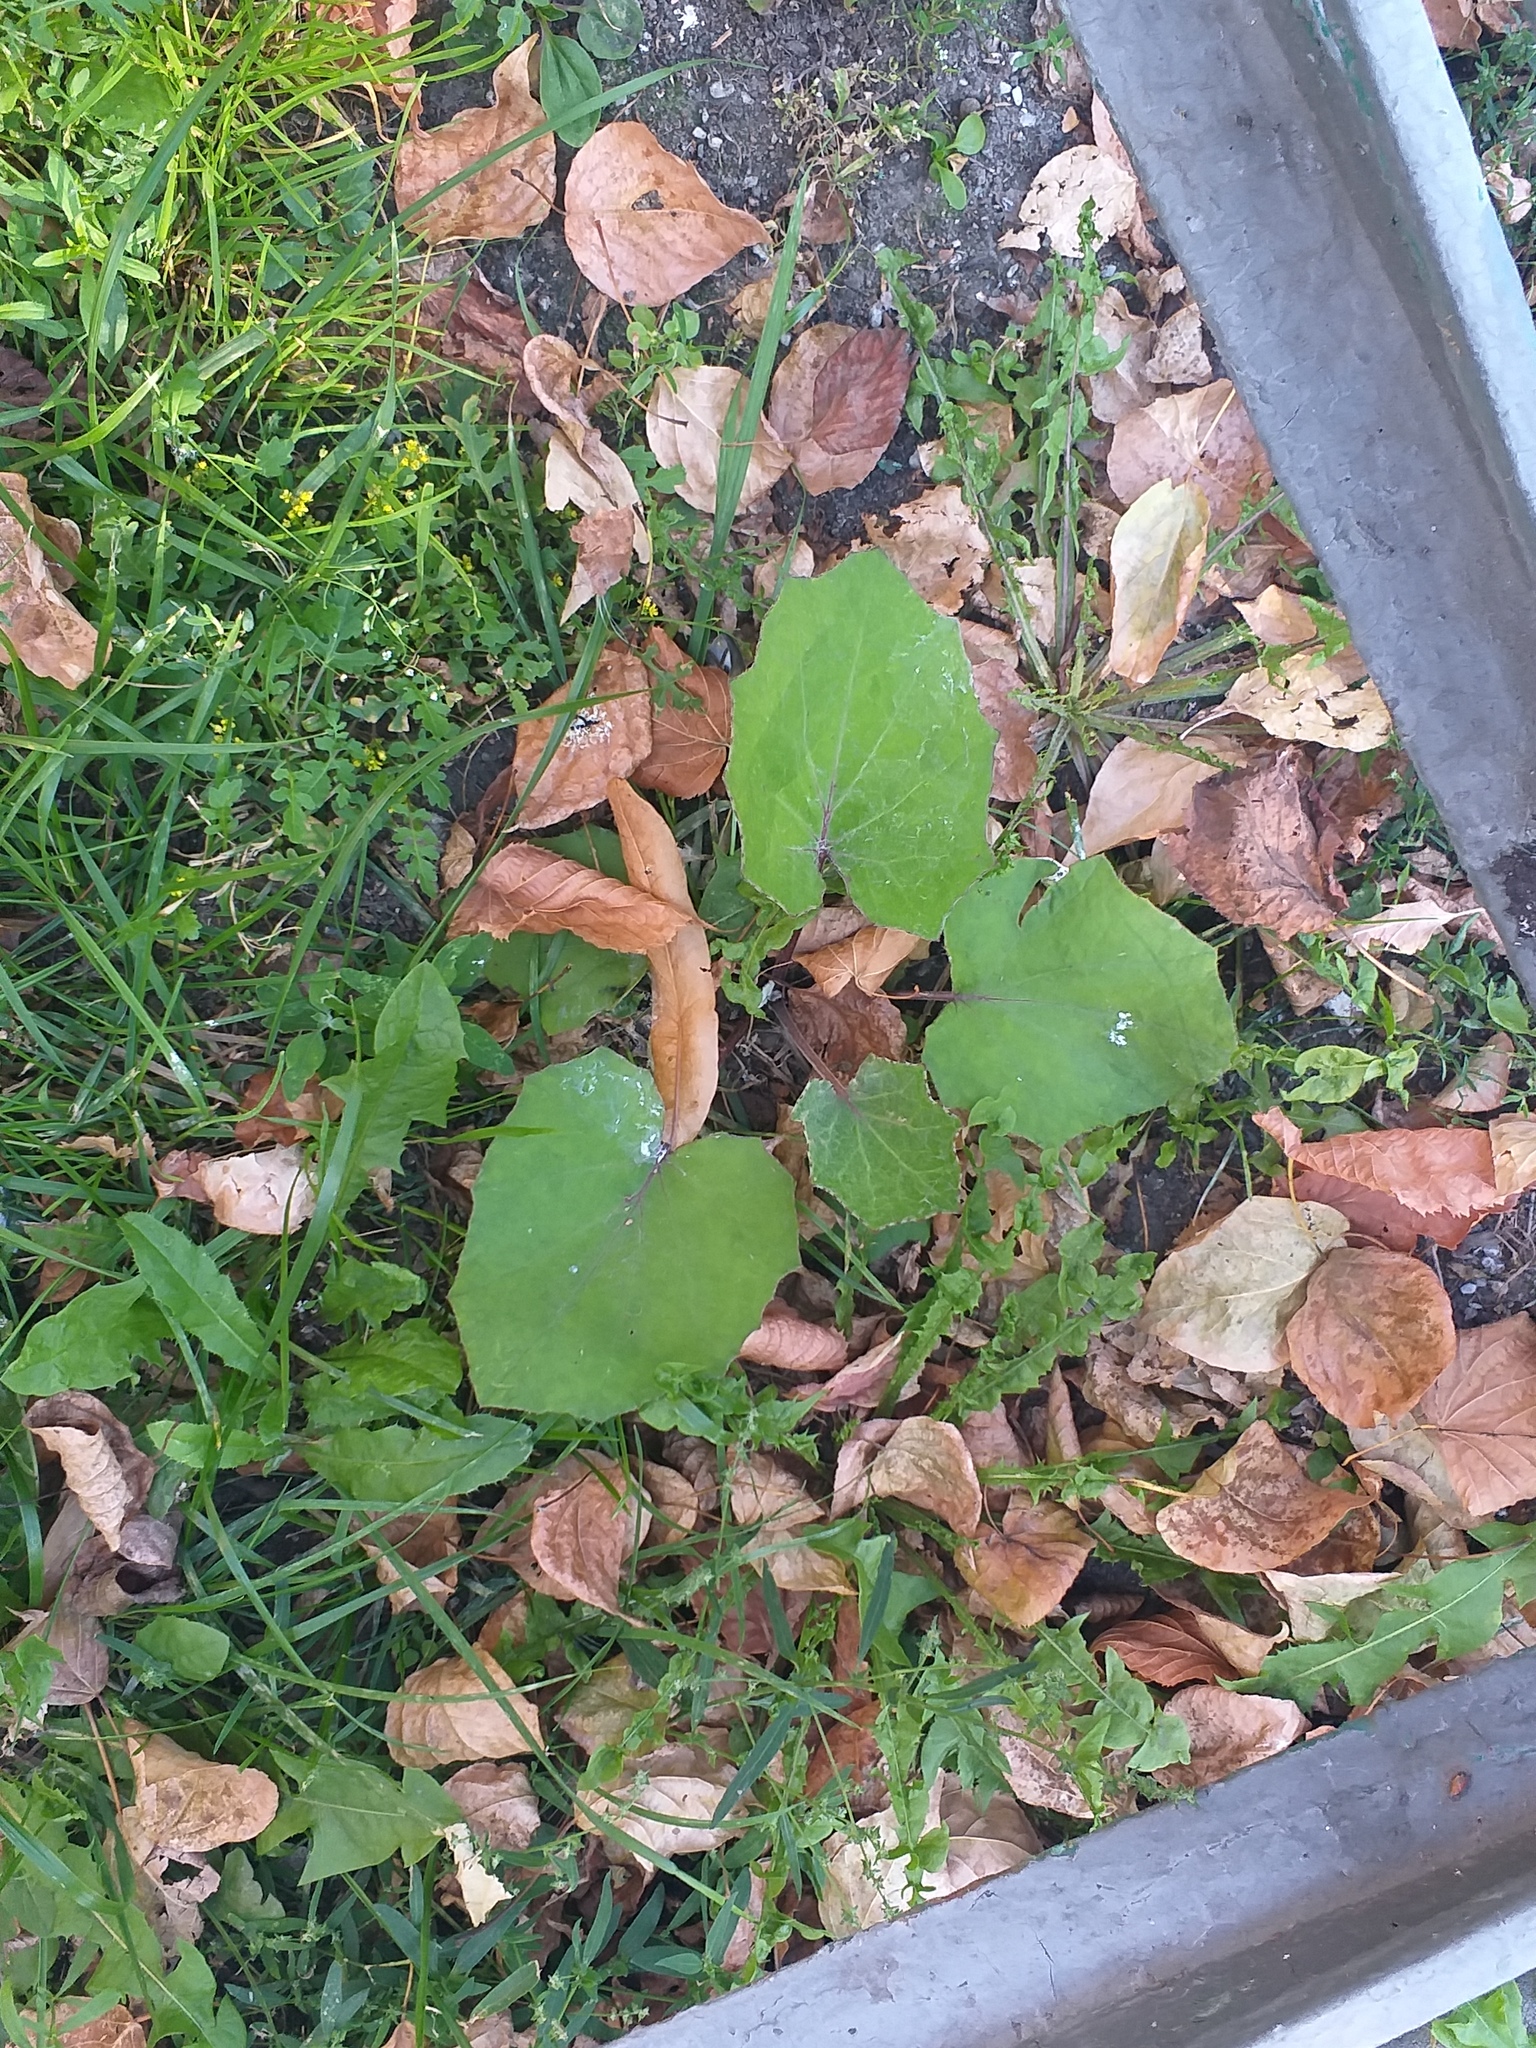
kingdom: Plantae
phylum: Tracheophyta
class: Magnoliopsida
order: Asterales
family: Asteraceae
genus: Tussilago
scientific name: Tussilago farfara
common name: Coltsfoot
